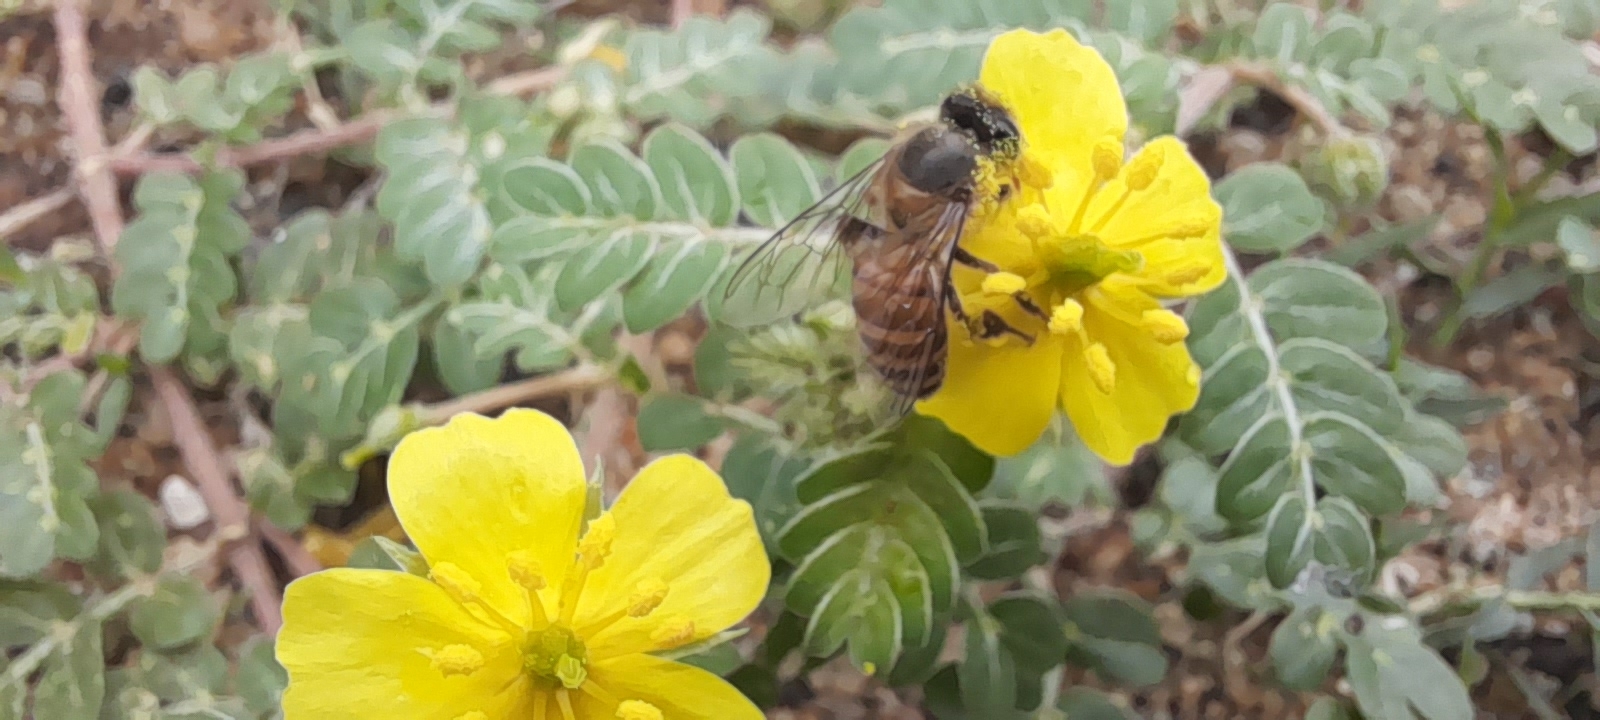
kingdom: Animalia
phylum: Arthropoda
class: Insecta
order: Hymenoptera
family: Apidae
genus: Apis
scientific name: Apis cerana
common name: Honey bee
